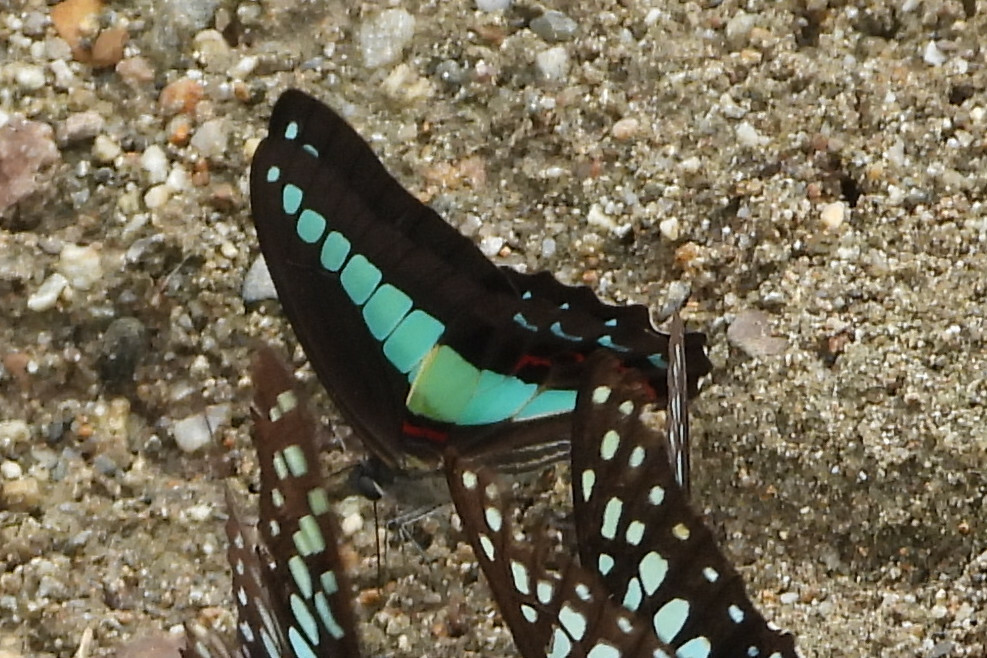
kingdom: Fungi
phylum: Ascomycota
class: Sordariomycetes
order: Microascales
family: Microascaceae
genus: Graphium
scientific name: Graphium sarpedon
